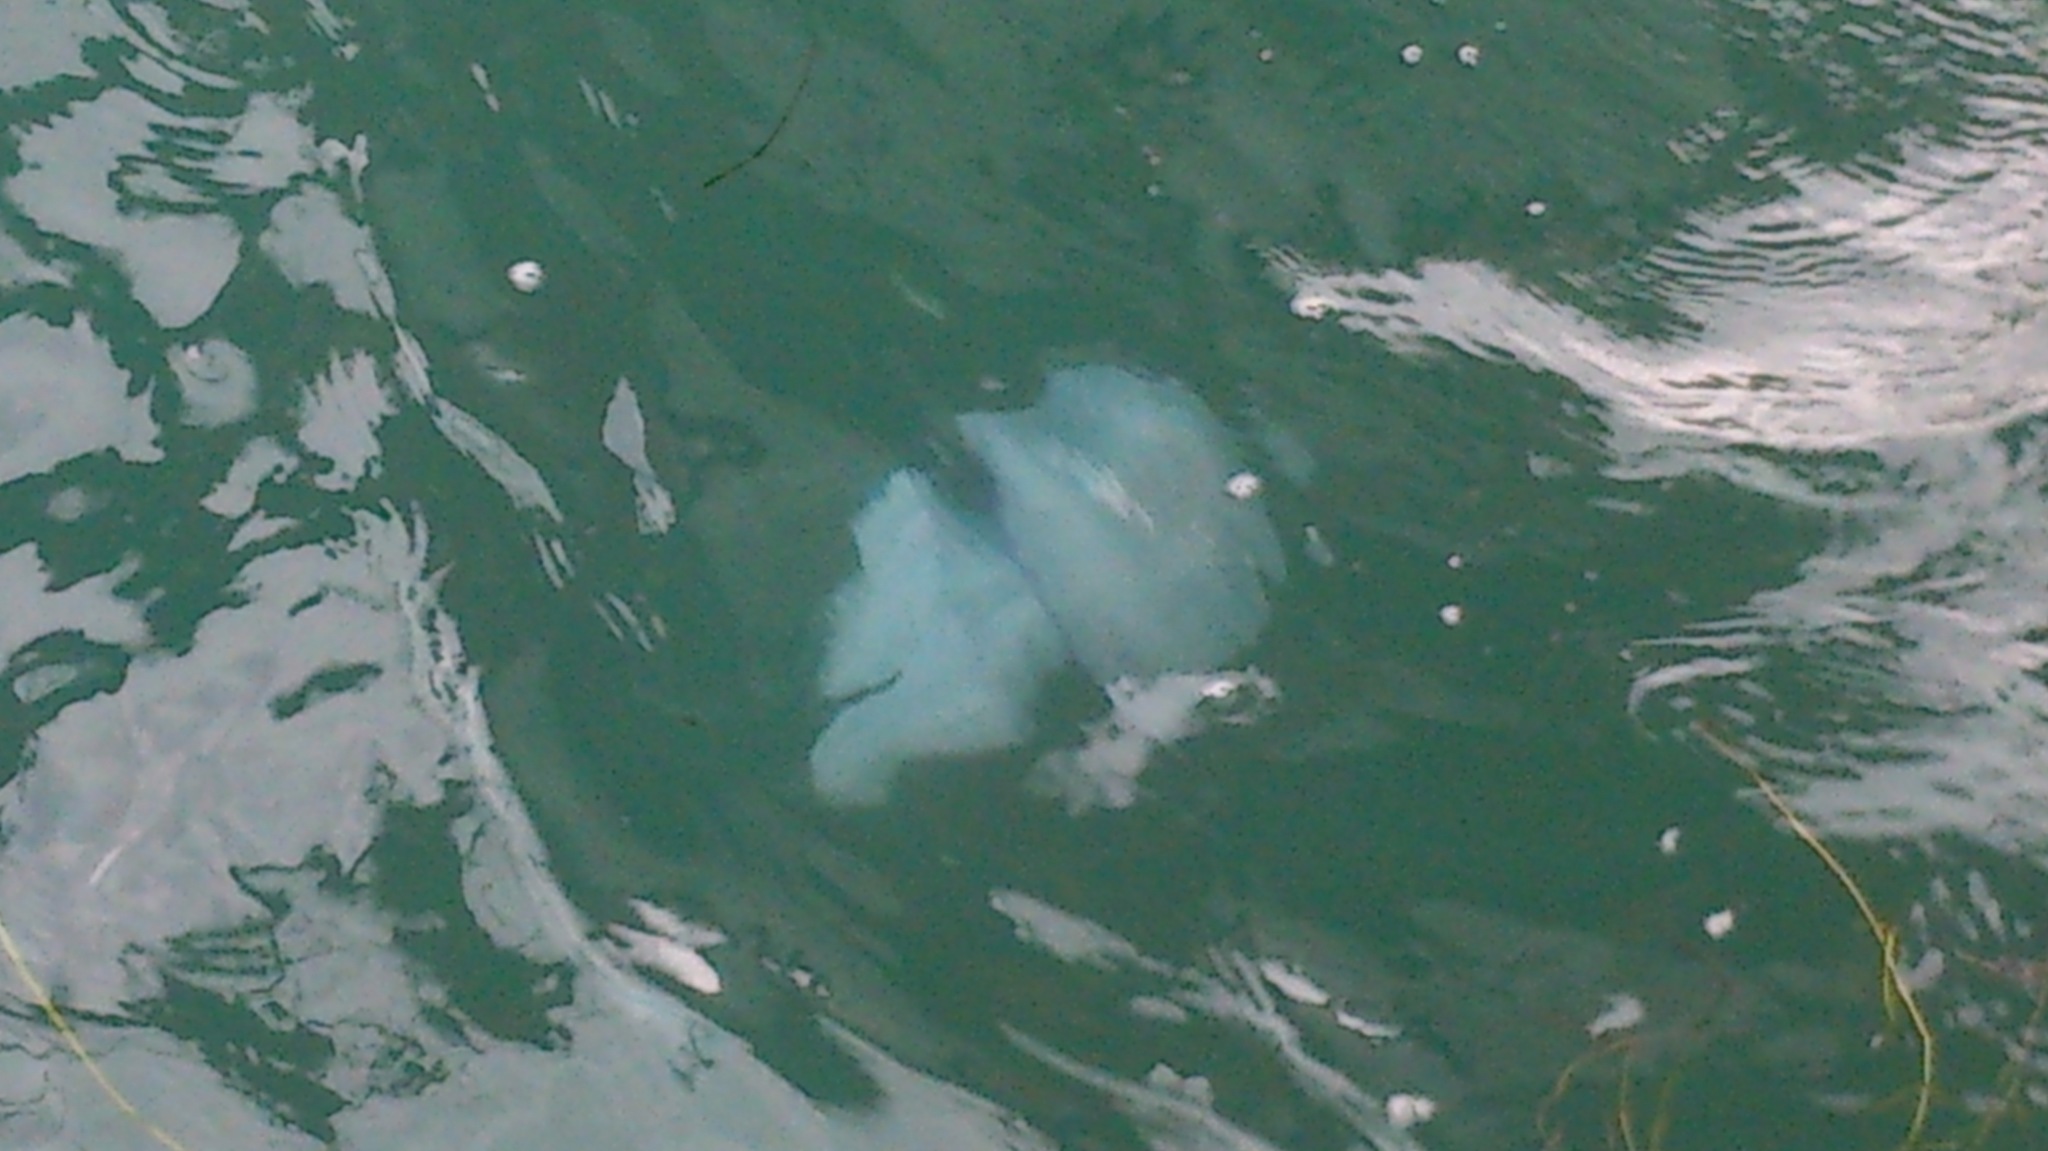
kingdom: Animalia
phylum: Cnidaria
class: Scyphozoa
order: Rhizostomeae
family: Rhizostomatidae
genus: Rhizostoma
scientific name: Rhizostoma pulmo
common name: Barrel jellyfish
